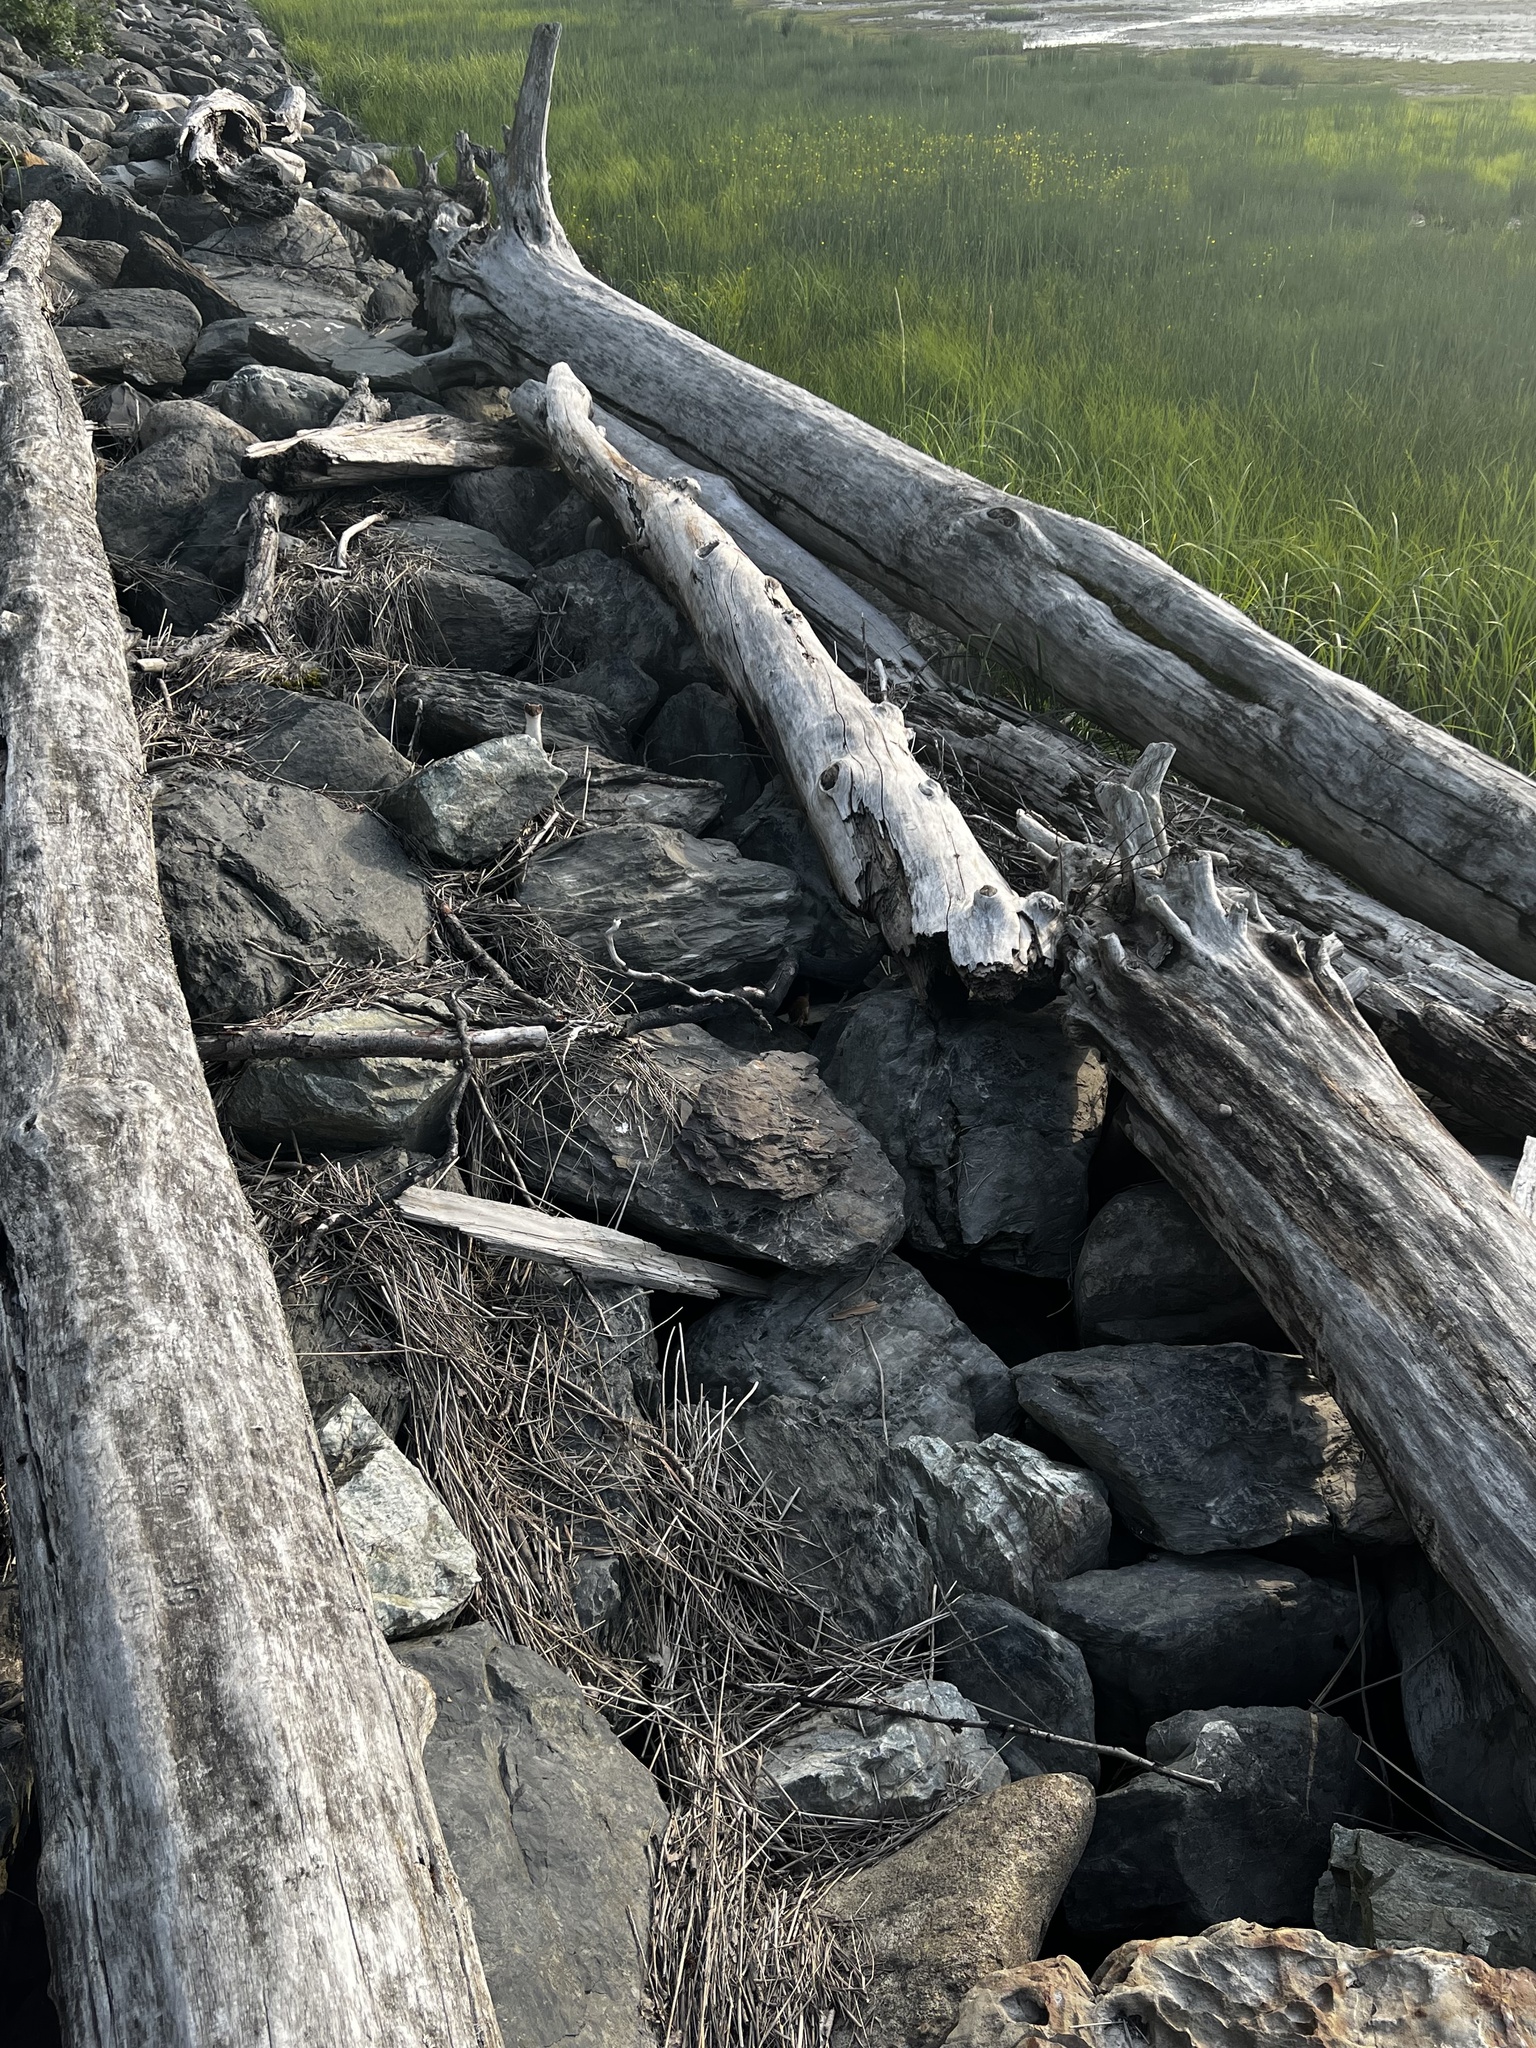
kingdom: Animalia
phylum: Chordata
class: Mammalia
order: Carnivora
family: Mustelidae
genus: Mustela
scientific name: Mustela erminea
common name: Stoat
